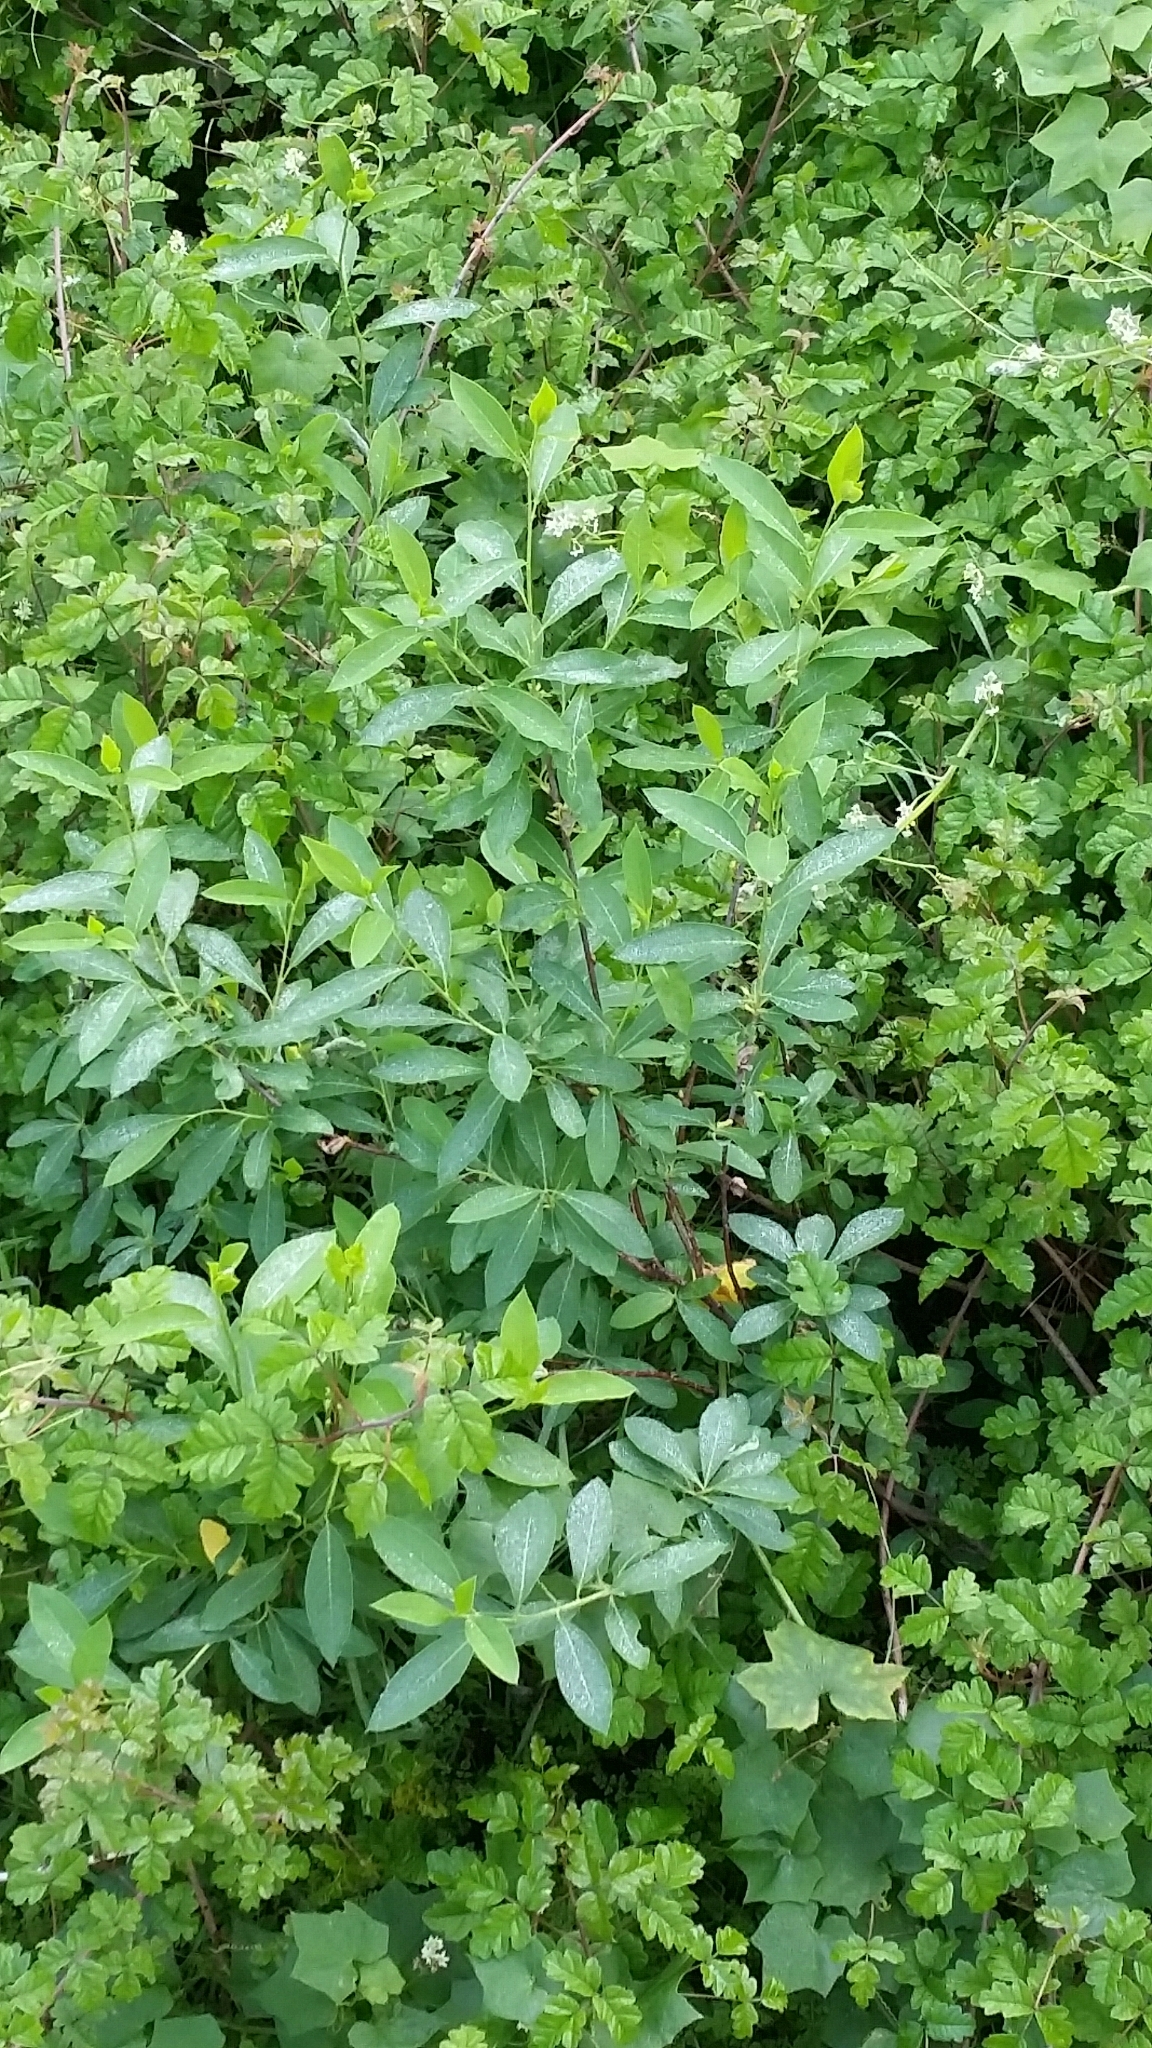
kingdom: Plantae
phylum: Tracheophyta
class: Magnoliopsida
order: Rosales
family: Rosaceae
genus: Oemleria
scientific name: Oemleria cerasiformis
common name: Osoberry
